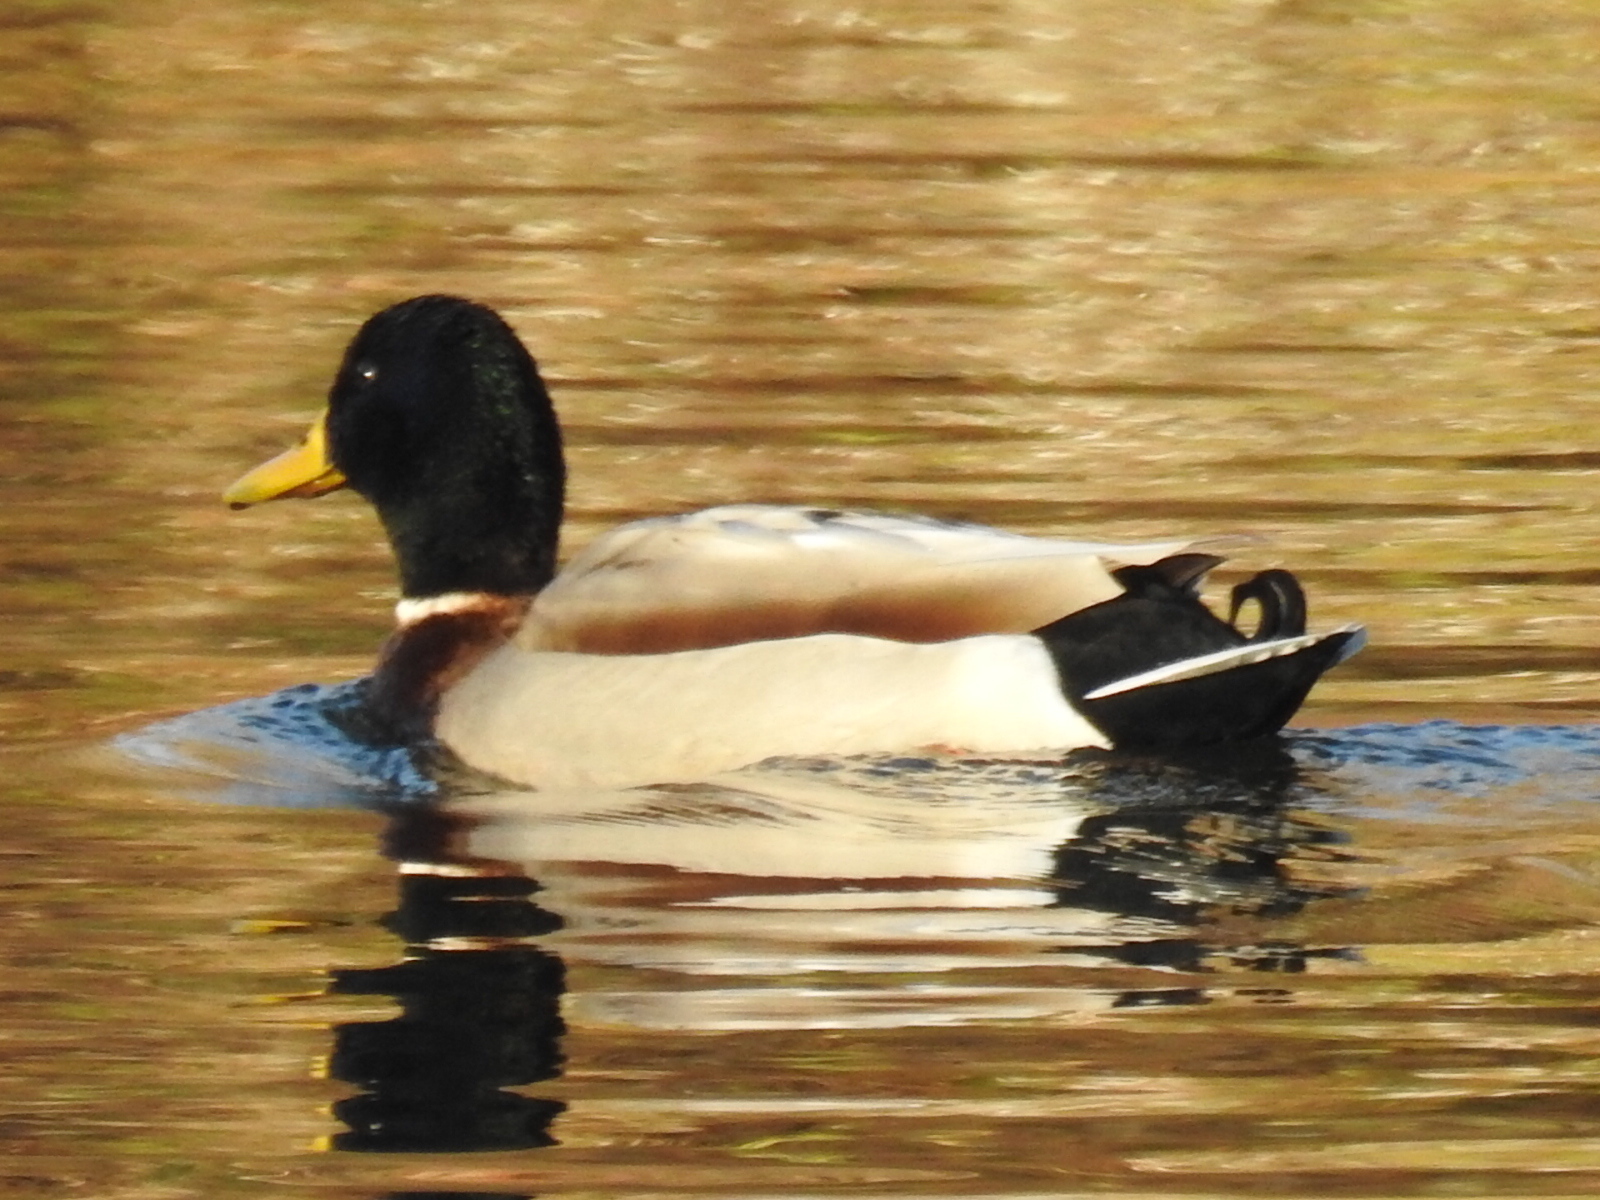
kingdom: Animalia
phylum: Chordata
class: Aves
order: Anseriformes
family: Anatidae
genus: Anas
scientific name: Anas platyrhynchos
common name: Mallard
